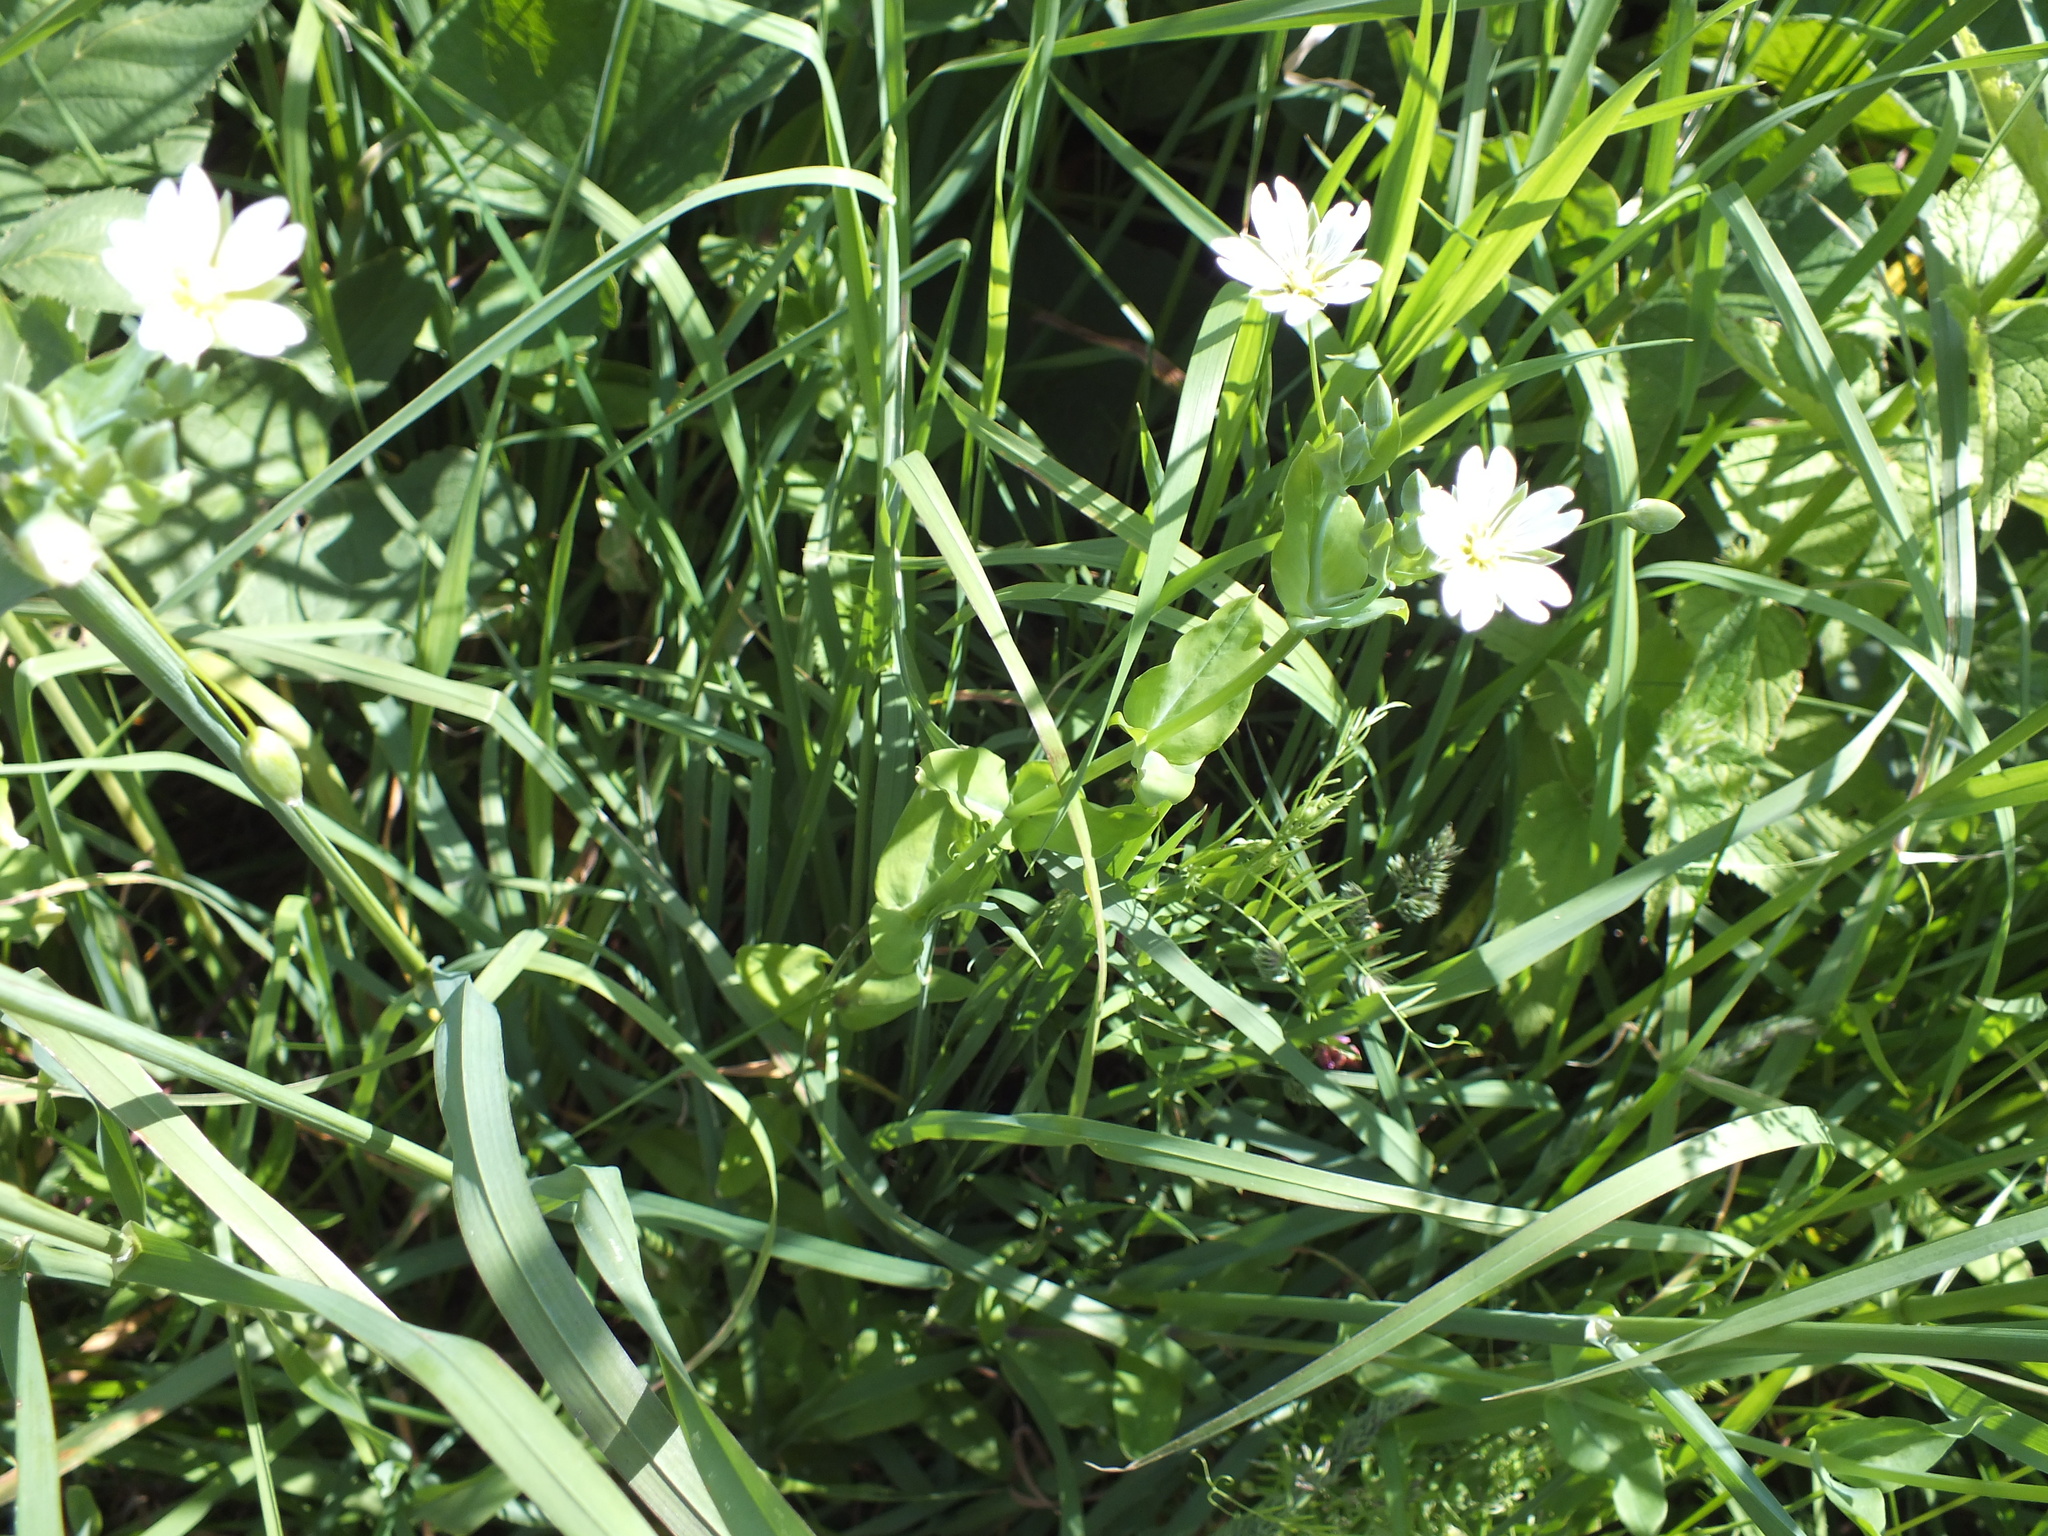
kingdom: Plantae
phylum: Tracheophyta
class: Magnoliopsida
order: Caryophyllales
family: Caryophyllaceae
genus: Cerastium
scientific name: Cerastium davuricum
